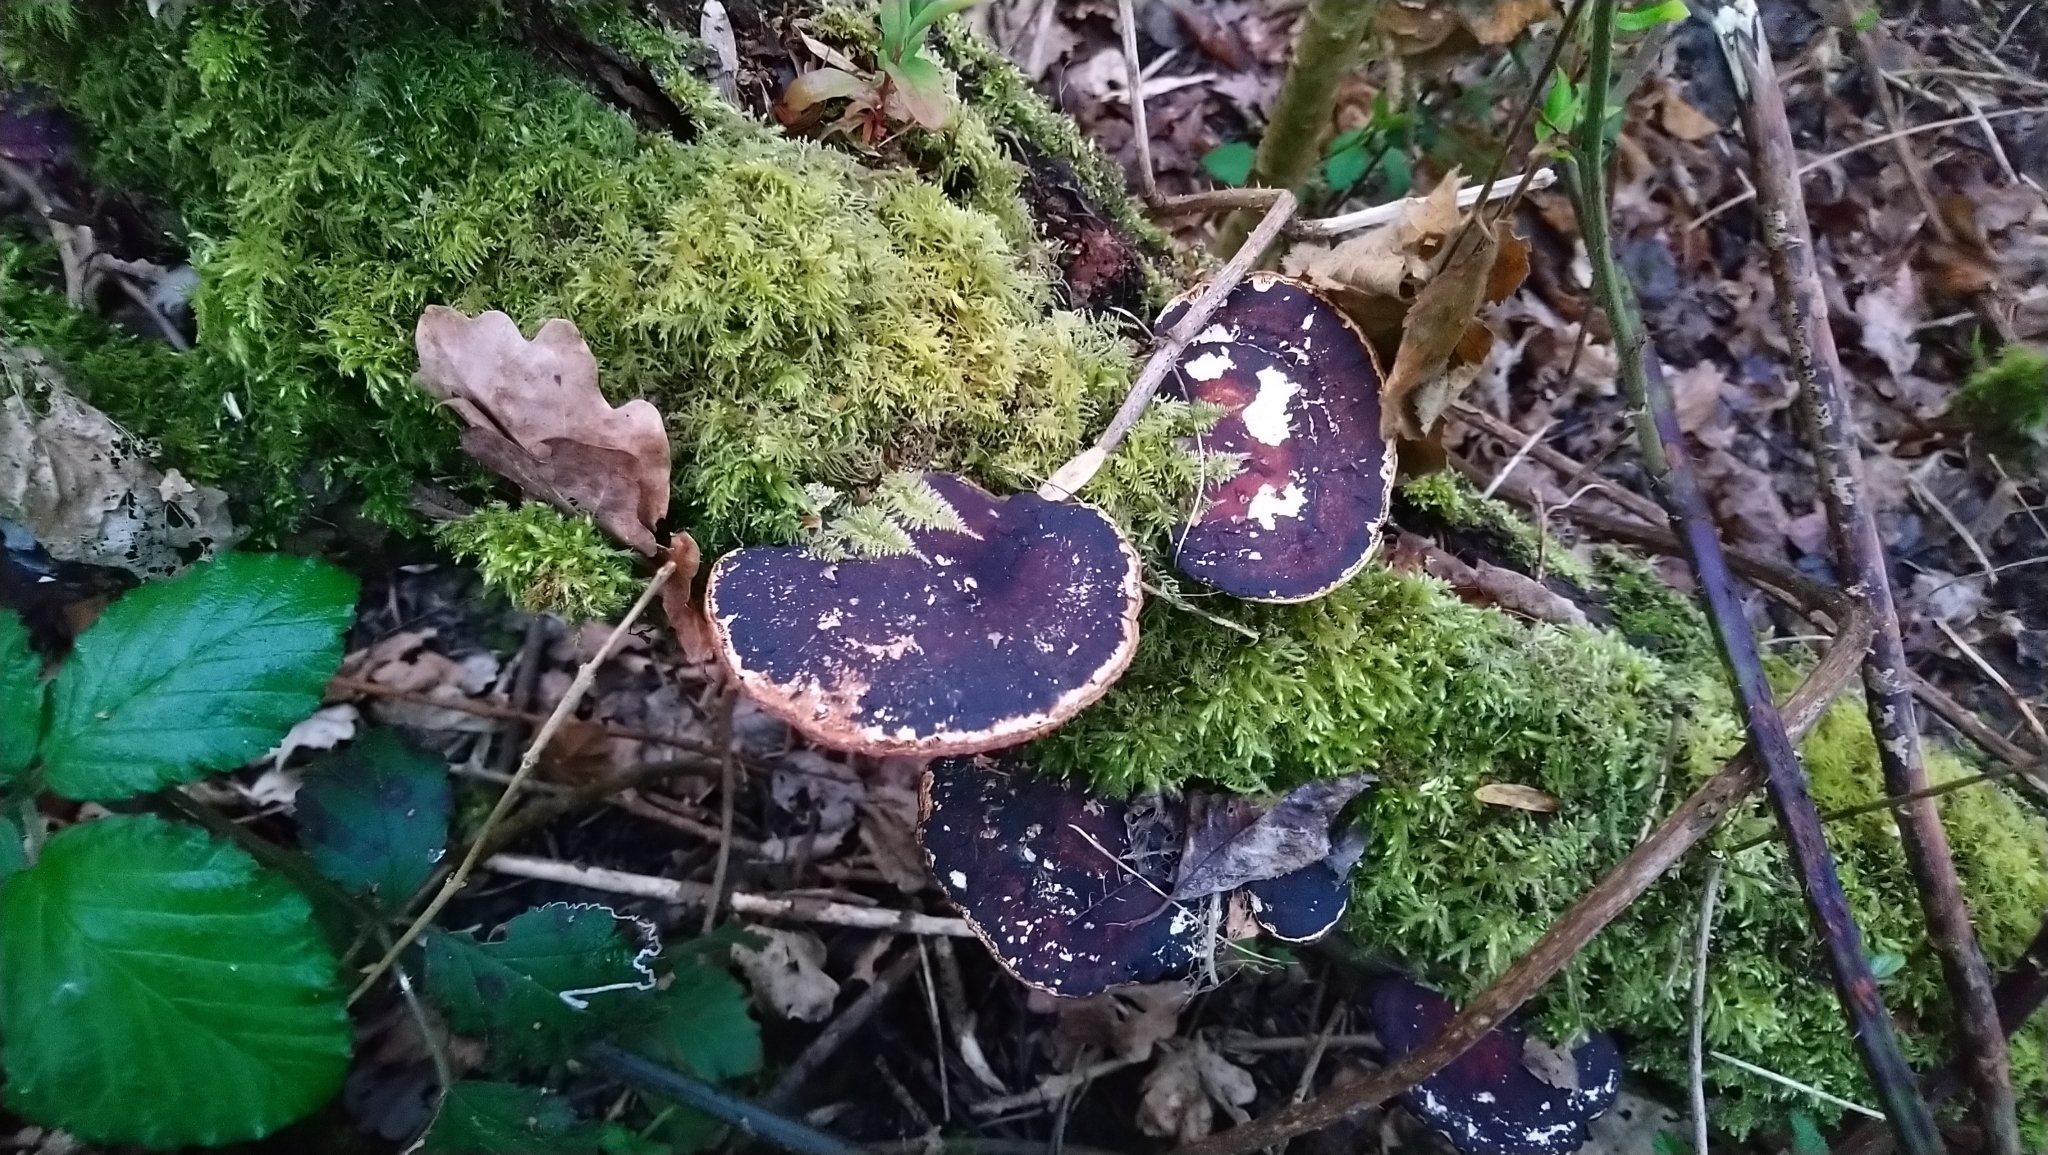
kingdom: Fungi
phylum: Basidiomycota
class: Agaricomycetes
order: Polyporales
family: Polyporaceae
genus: Daedaleopsis
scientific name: Daedaleopsis confragosa
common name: Blushing bracket
